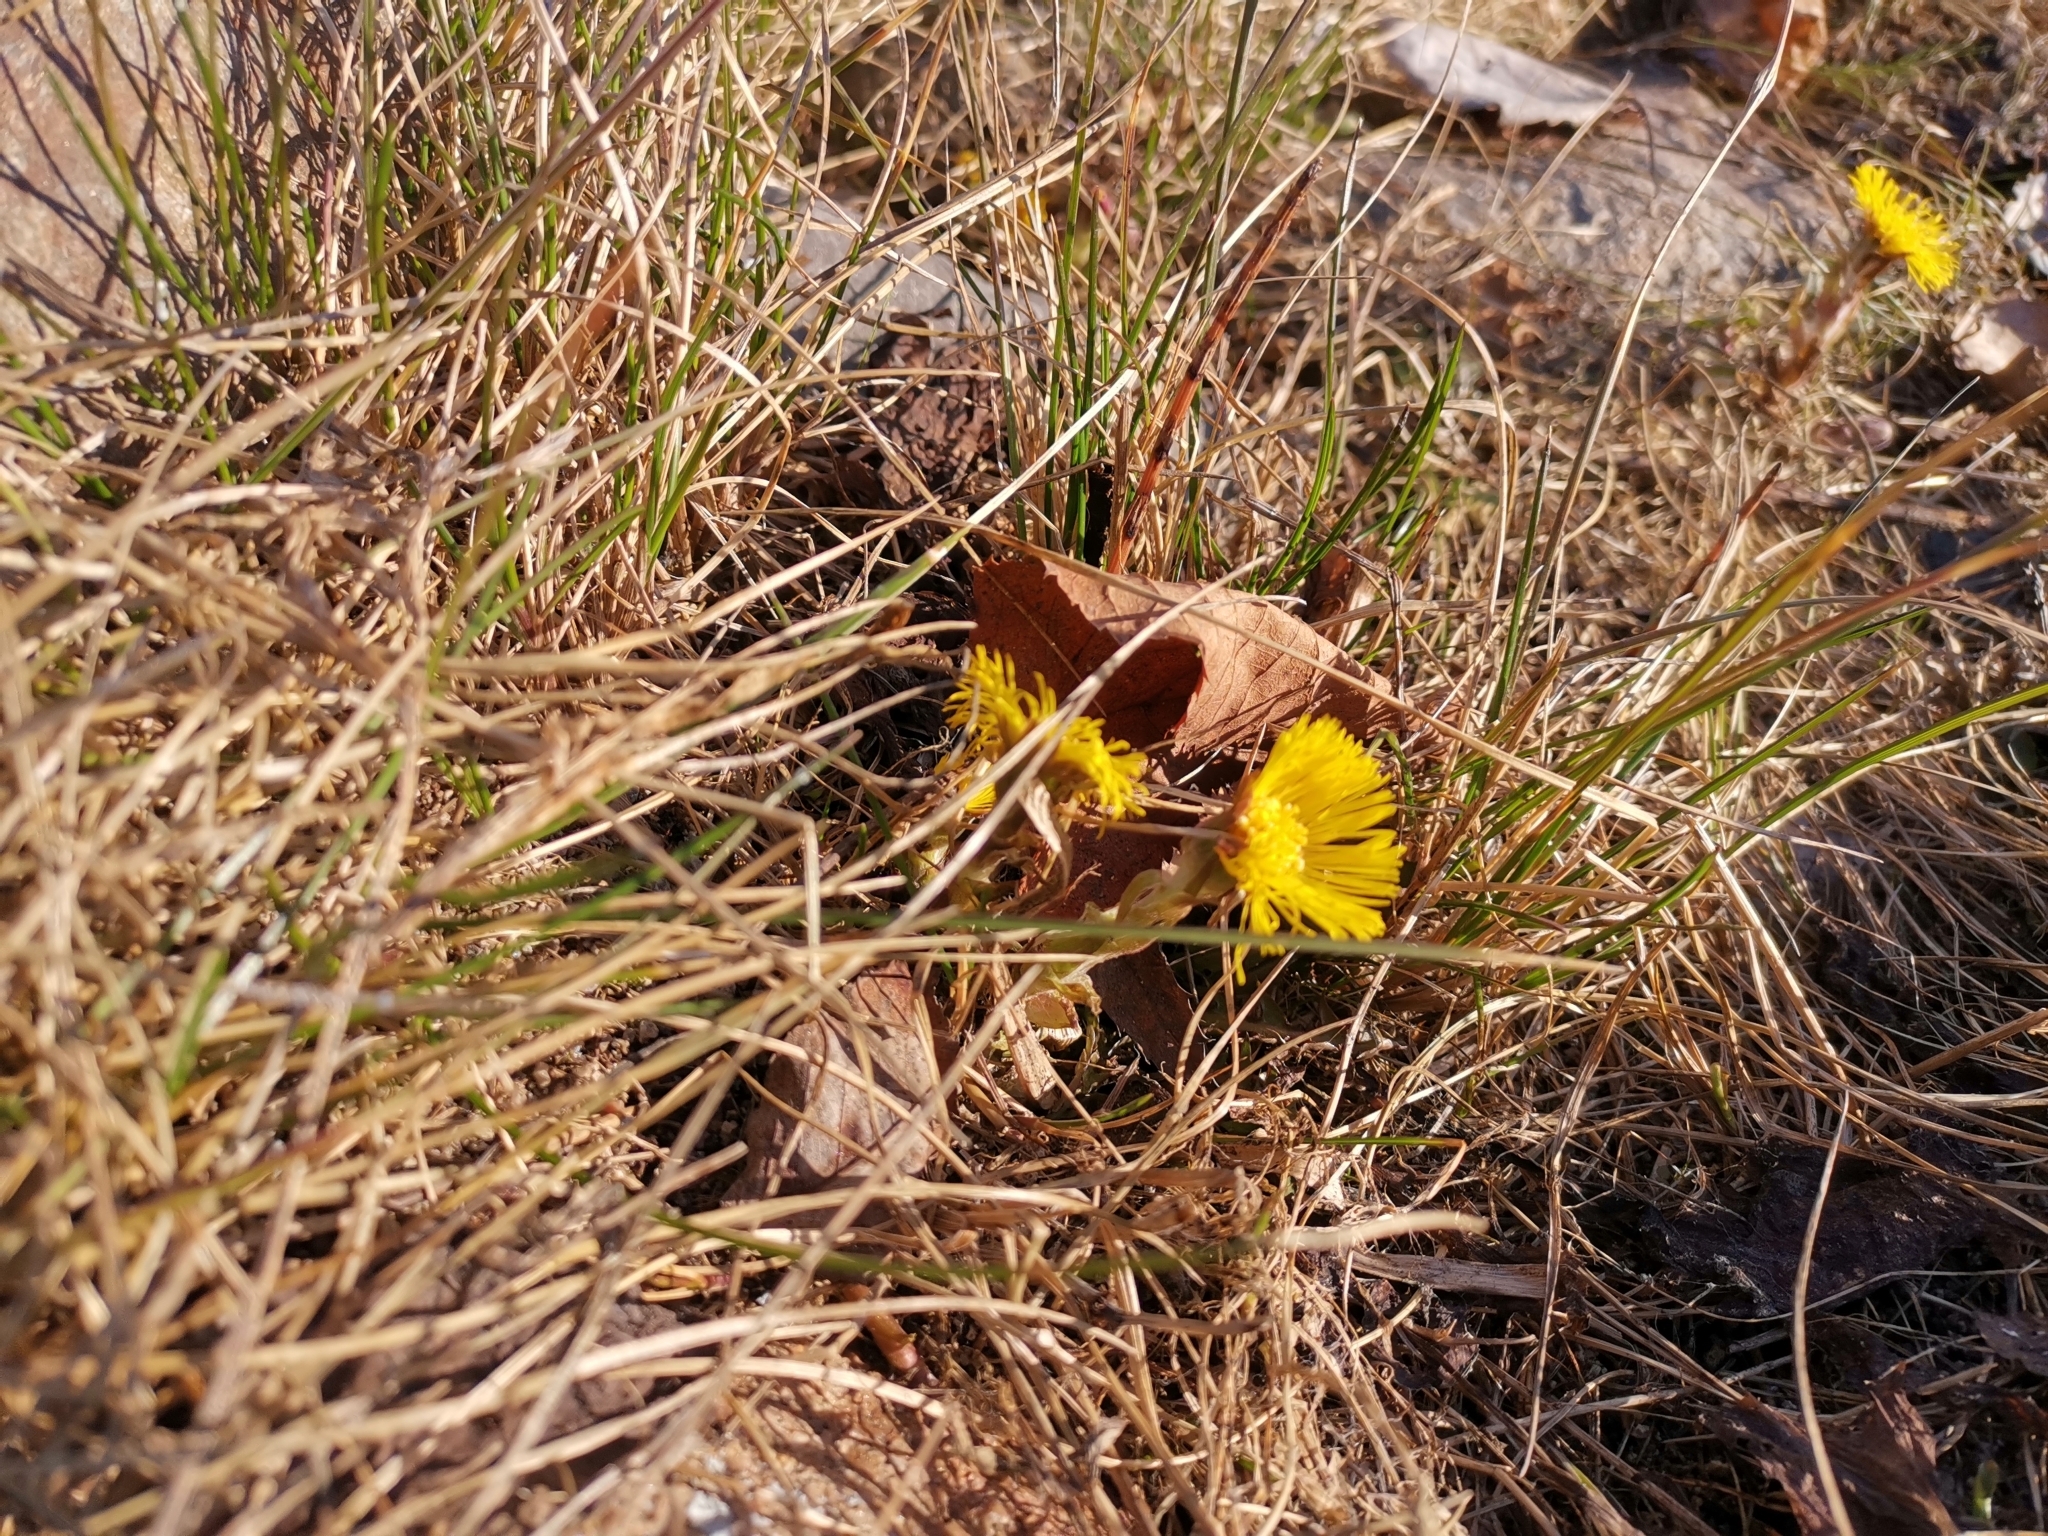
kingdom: Plantae
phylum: Tracheophyta
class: Magnoliopsida
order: Asterales
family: Asteraceae
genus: Tussilago
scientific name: Tussilago farfara
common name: Coltsfoot
